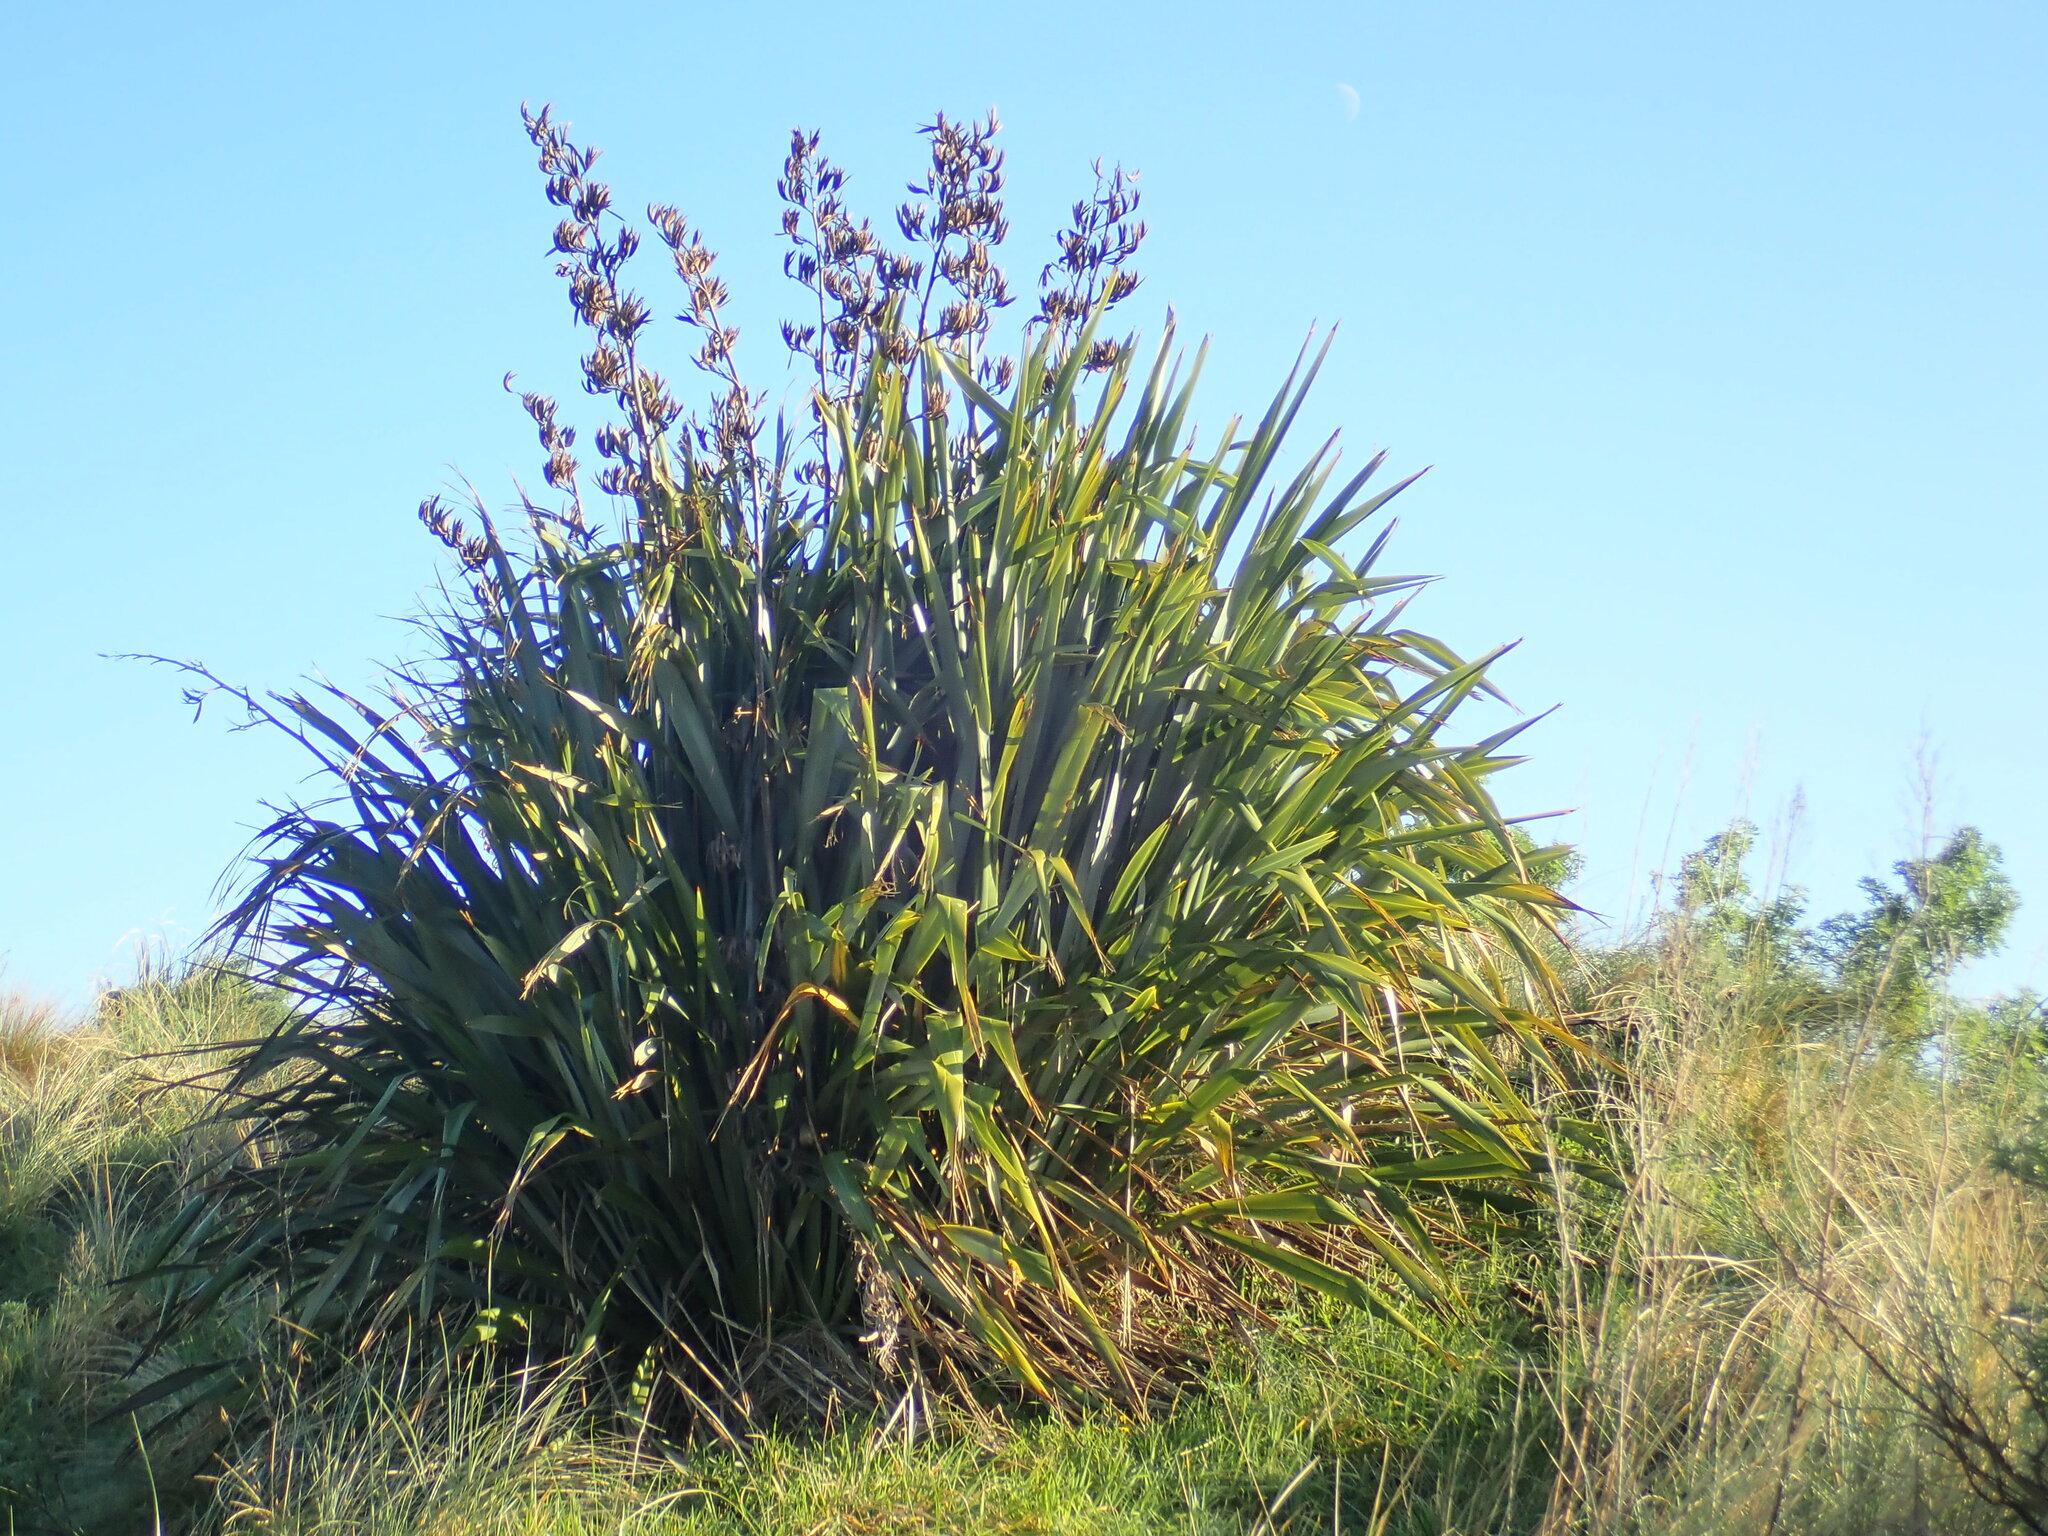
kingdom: Plantae
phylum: Tracheophyta
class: Liliopsida
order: Asparagales
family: Asphodelaceae
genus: Phormium
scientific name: Phormium tenax
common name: New zealand flax
